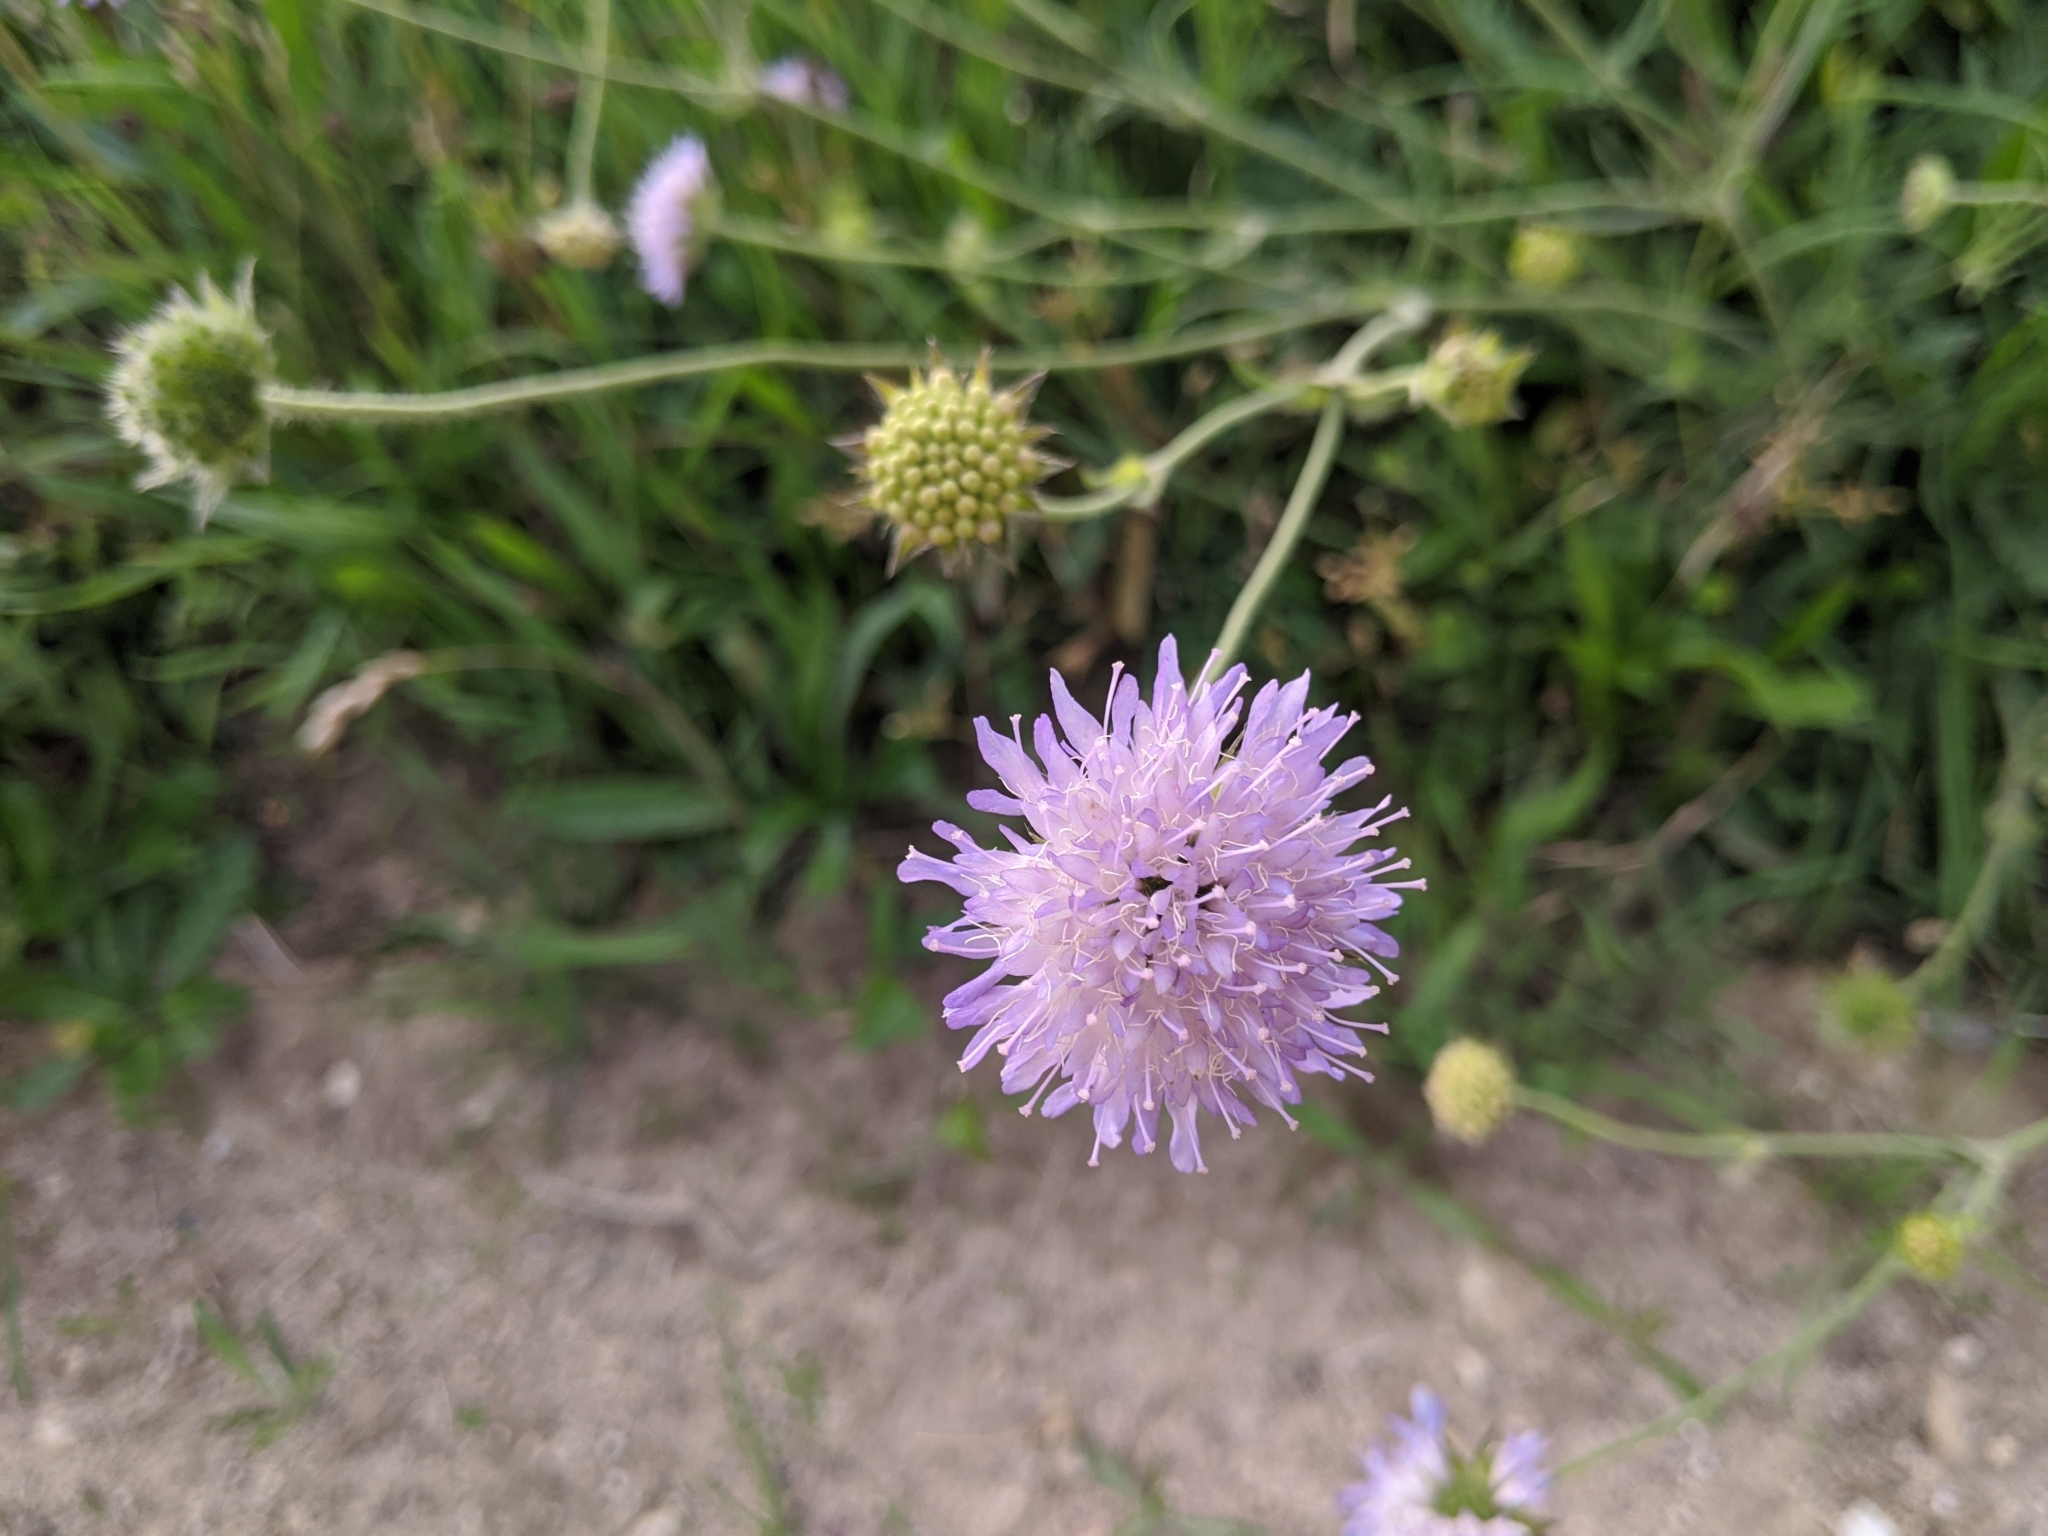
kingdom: Plantae
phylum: Tracheophyta
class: Magnoliopsida
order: Dipsacales
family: Caprifoliaceae
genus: Knautia
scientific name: Knautia arvensis
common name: Field scabiosa
